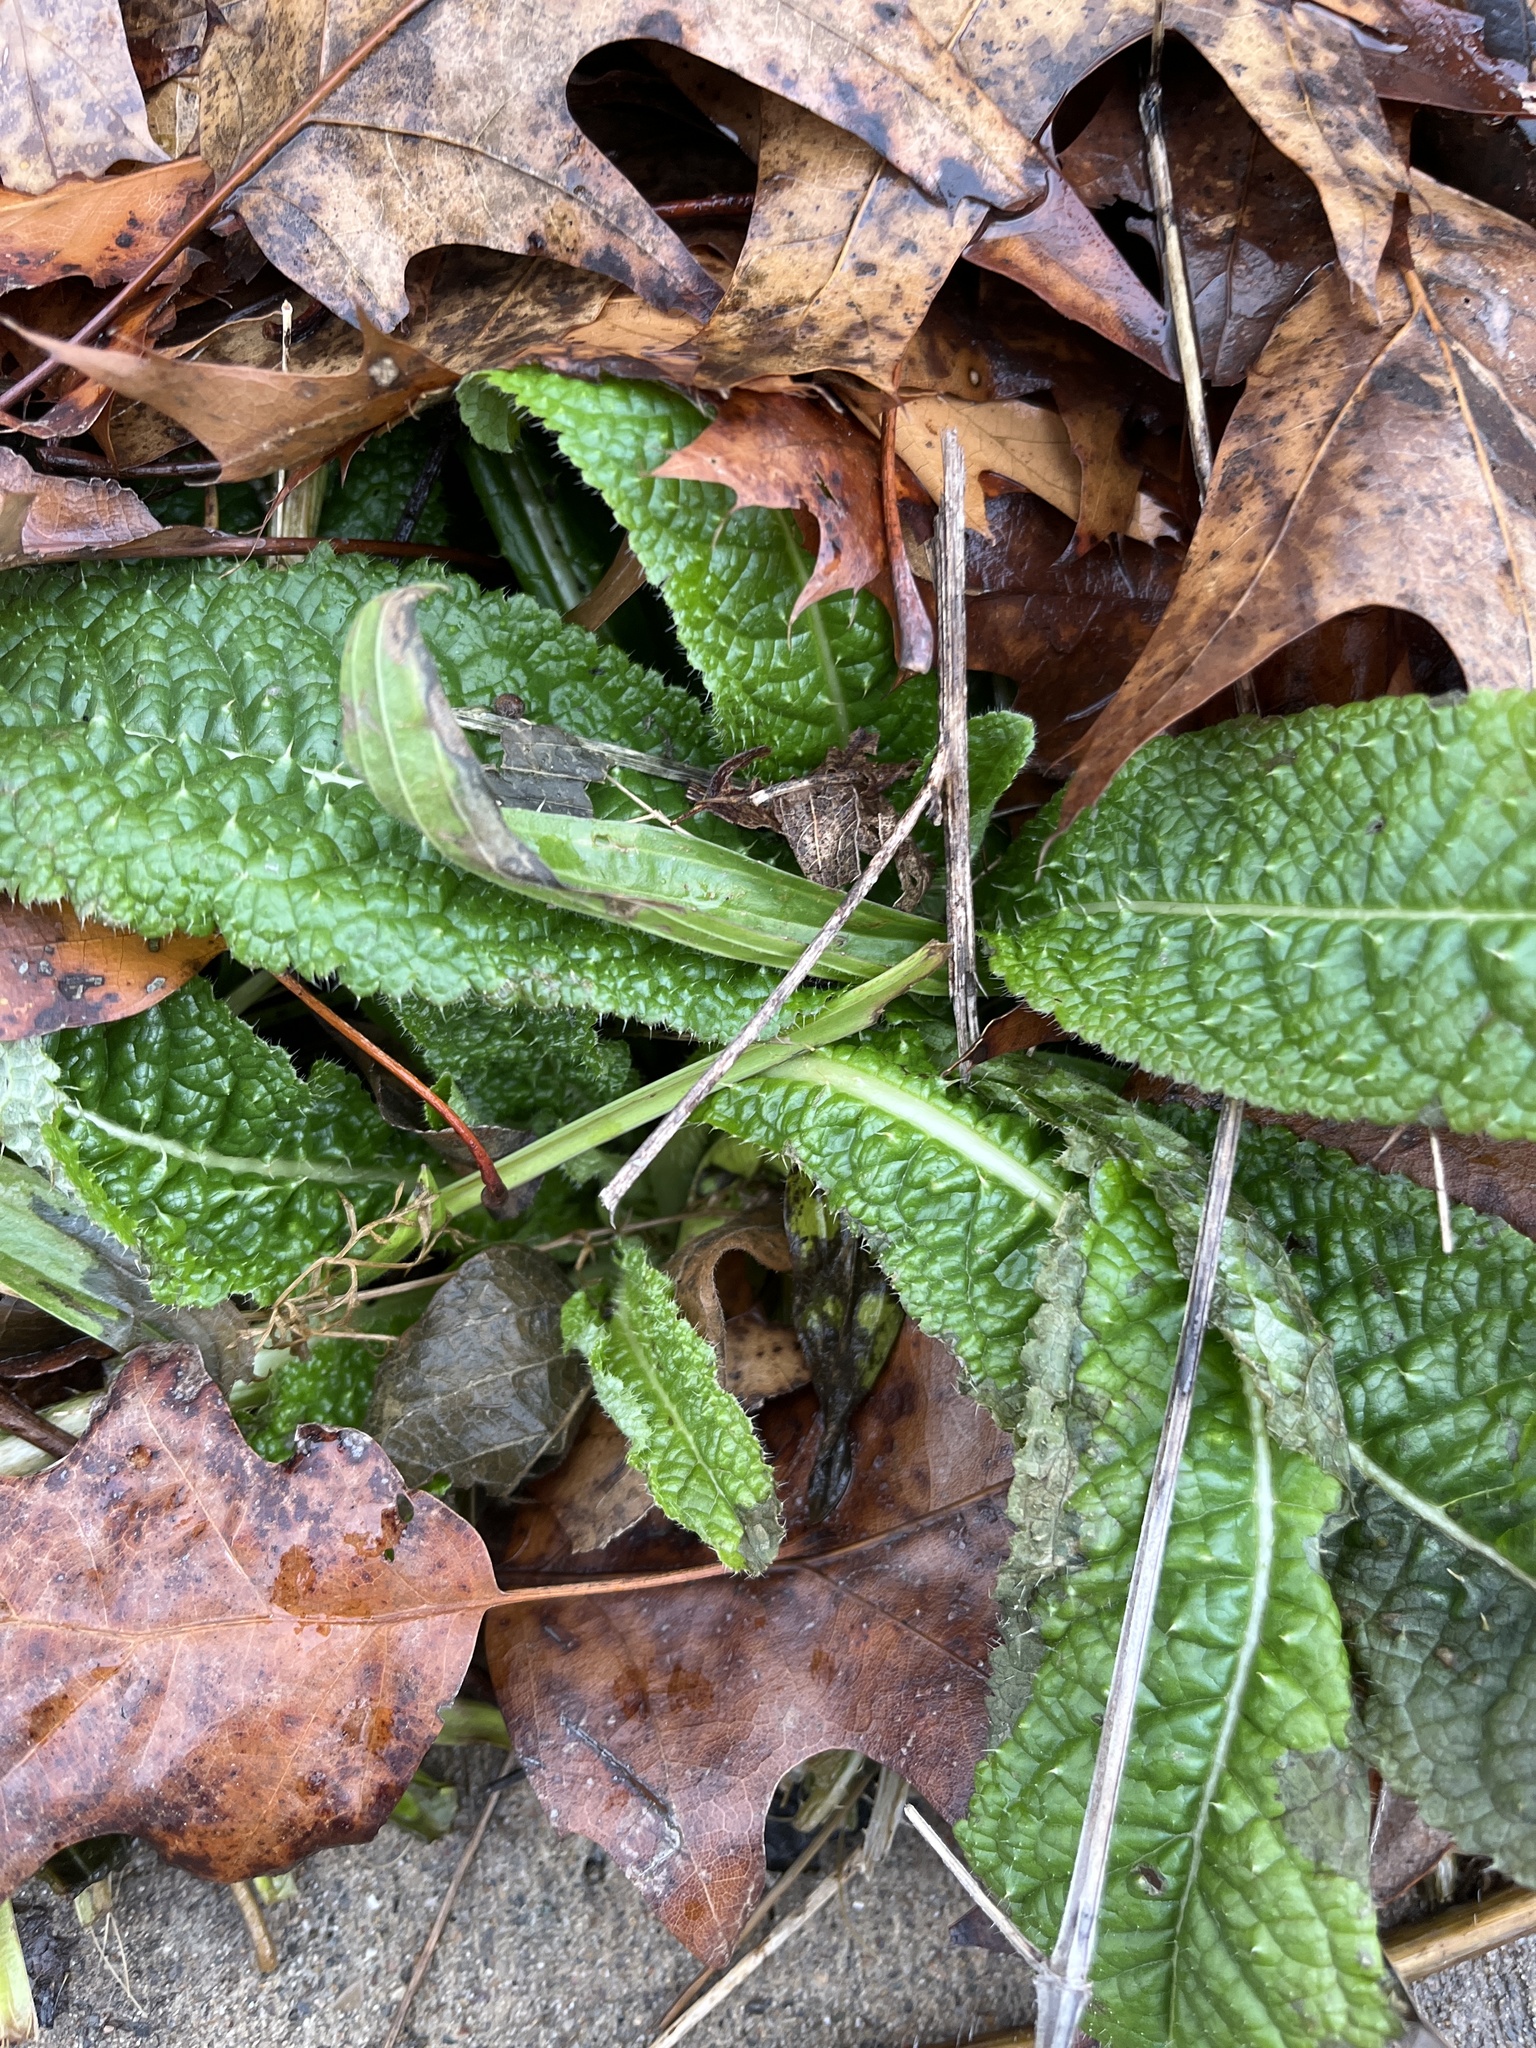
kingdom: Plantae
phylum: Tracheophyta
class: Magnoliopsida
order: Dipsacales
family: Caprifoliaceae
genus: Dipsacus
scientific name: Dipsacus fullonum
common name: Teasel
